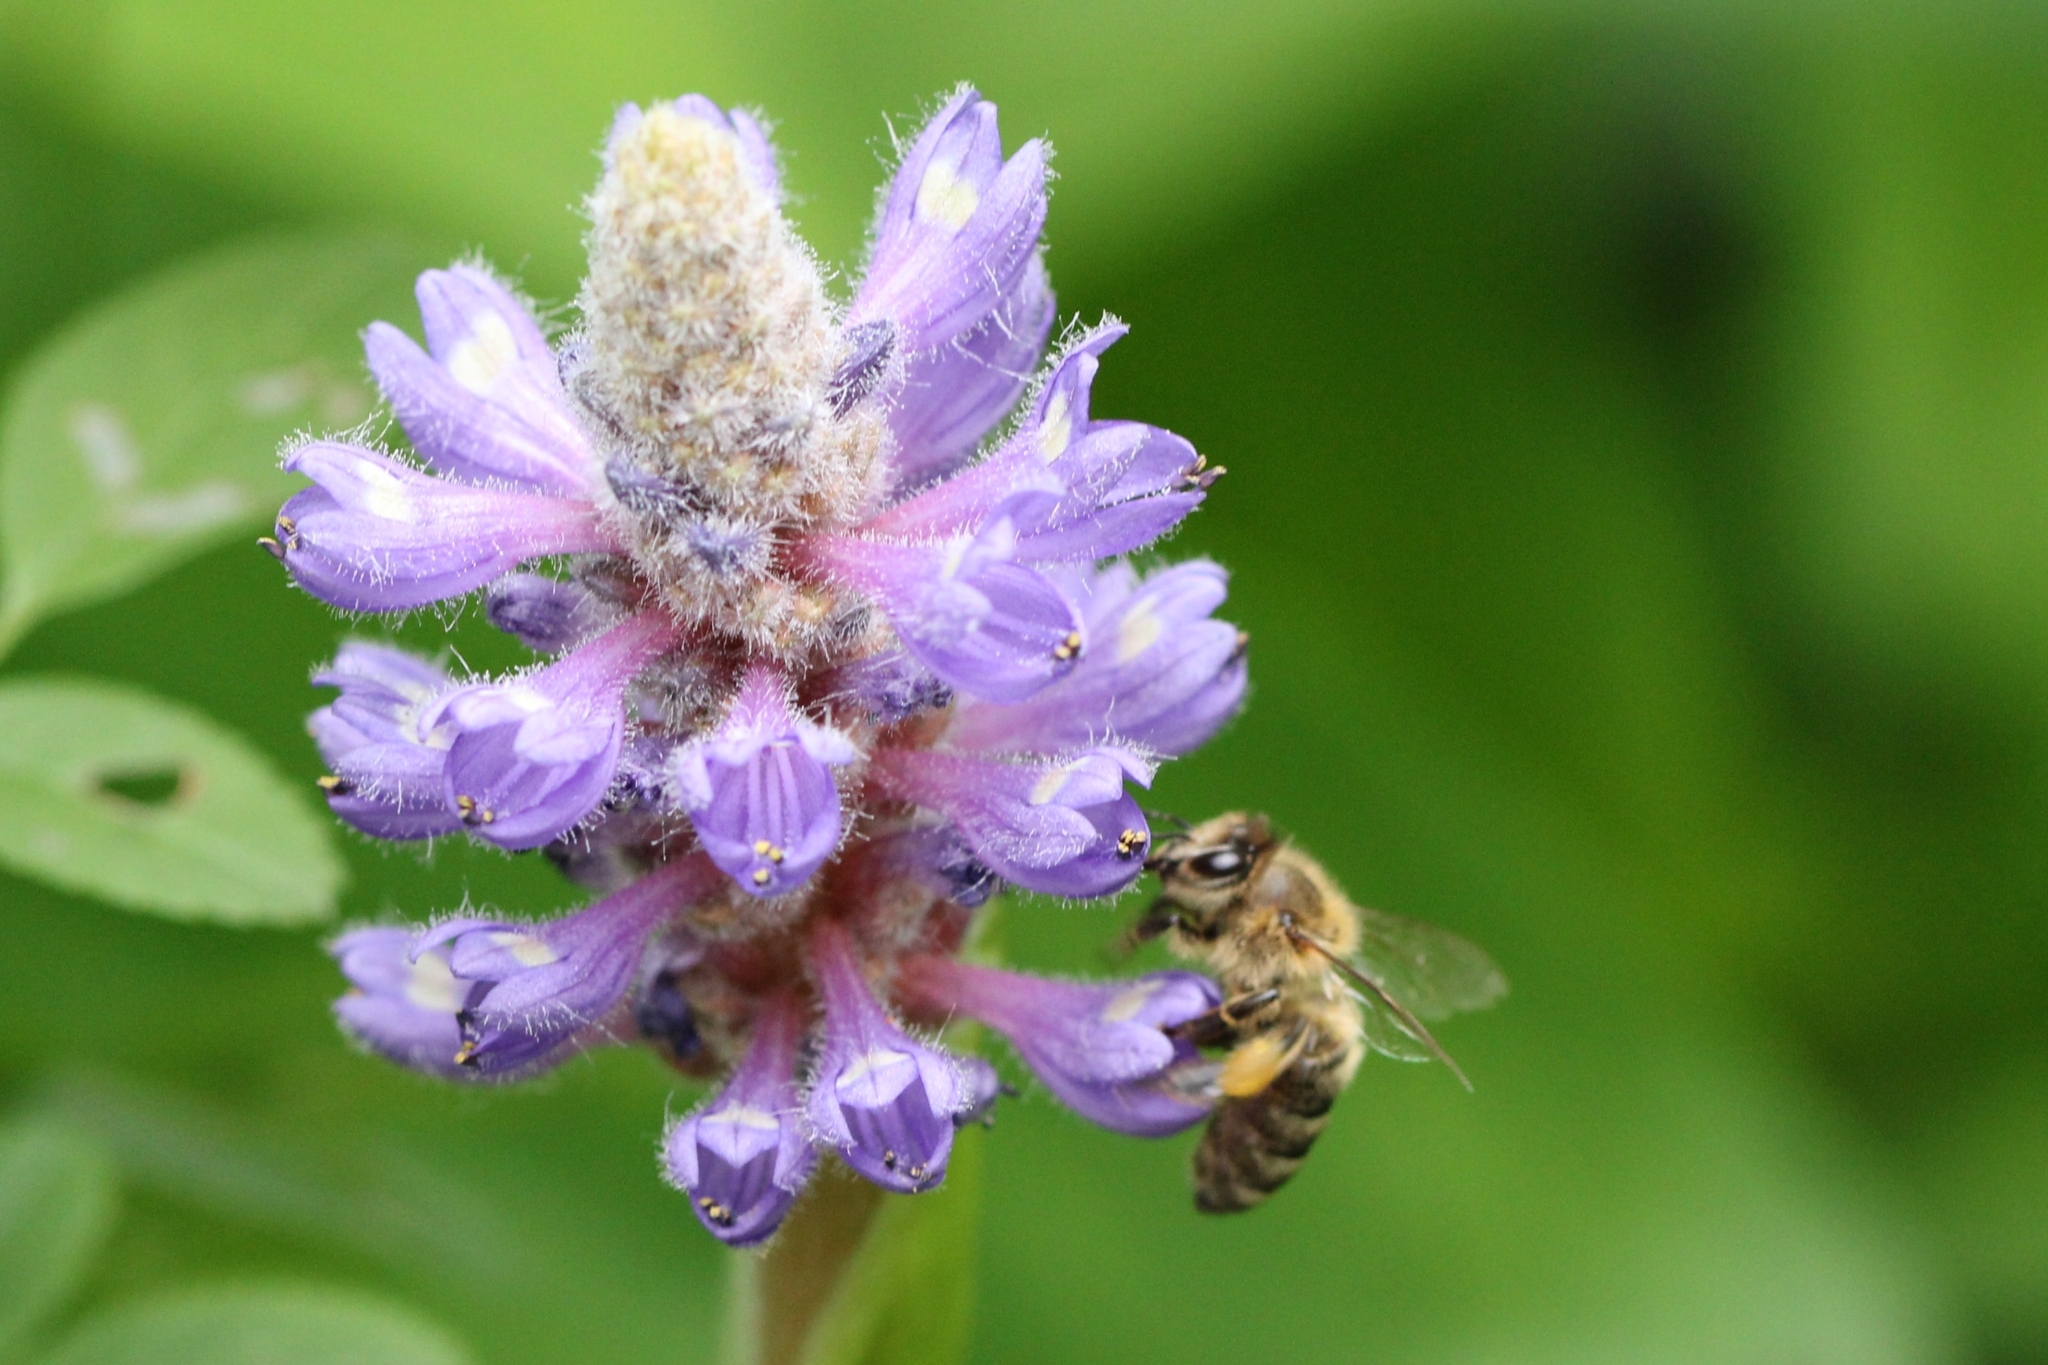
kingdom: Animalia
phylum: Arthropoda
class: Insecta
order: Hymenoptera
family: Apidae
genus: Apis
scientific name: Apis mellifera
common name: Honey bee
